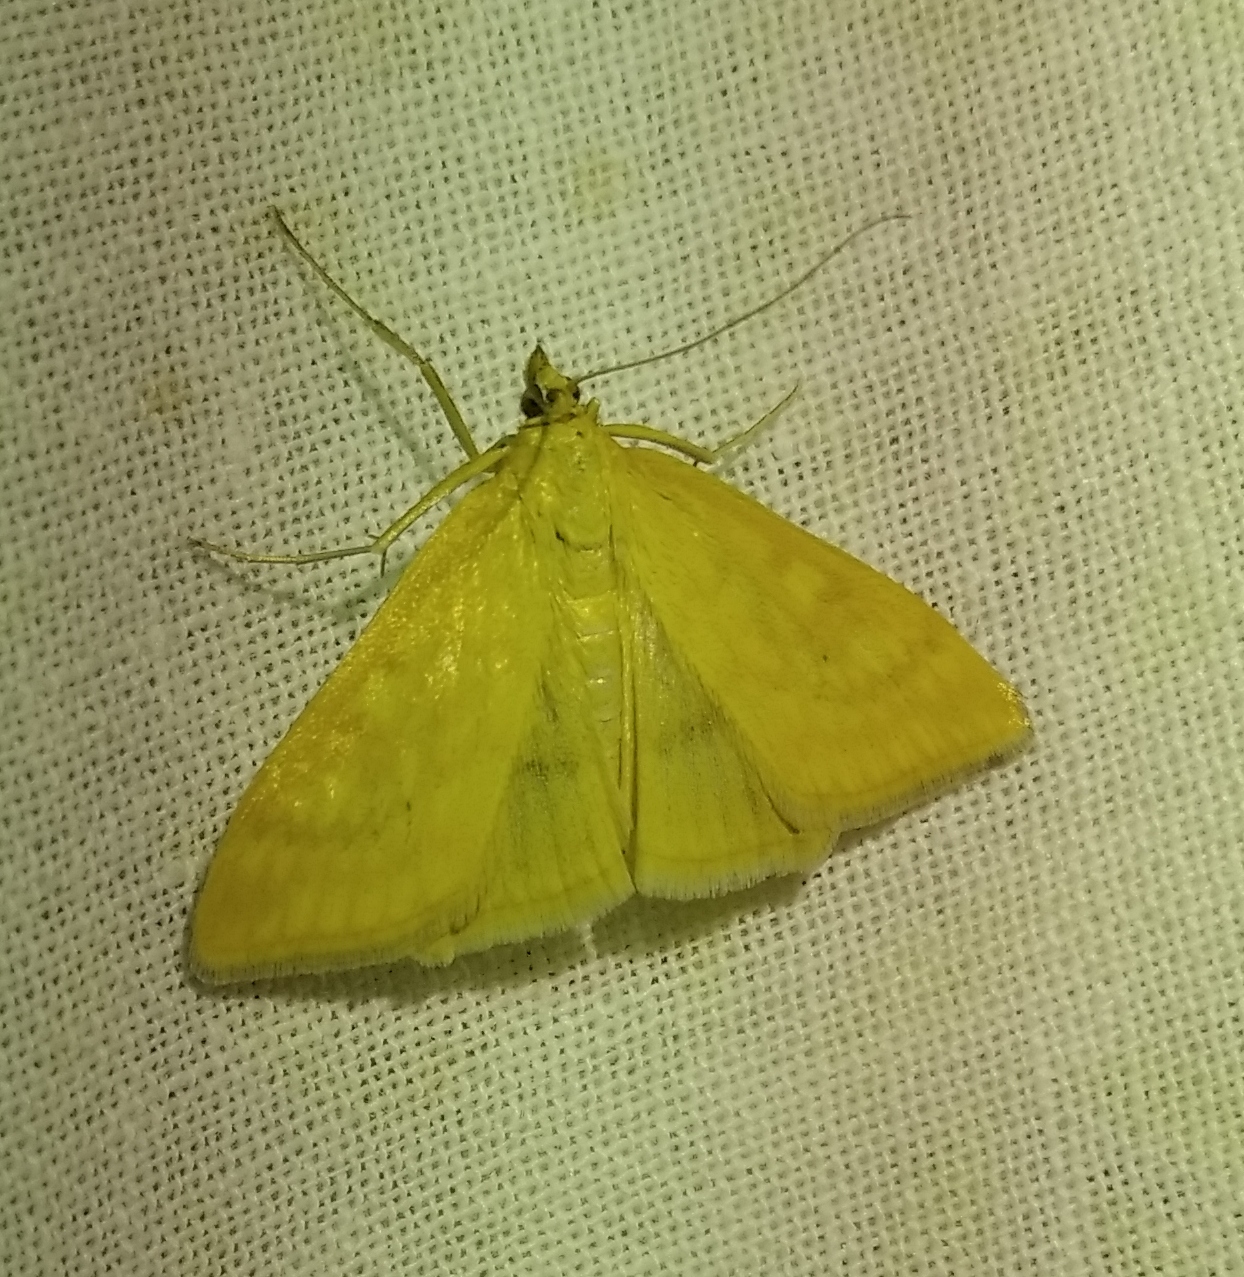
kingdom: Animalia
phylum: Arthropoda
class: Insecta
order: Lepidoptera
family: Crambidae
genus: Sitochroa
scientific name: Sitochroa verticalis
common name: Lesser pearl
